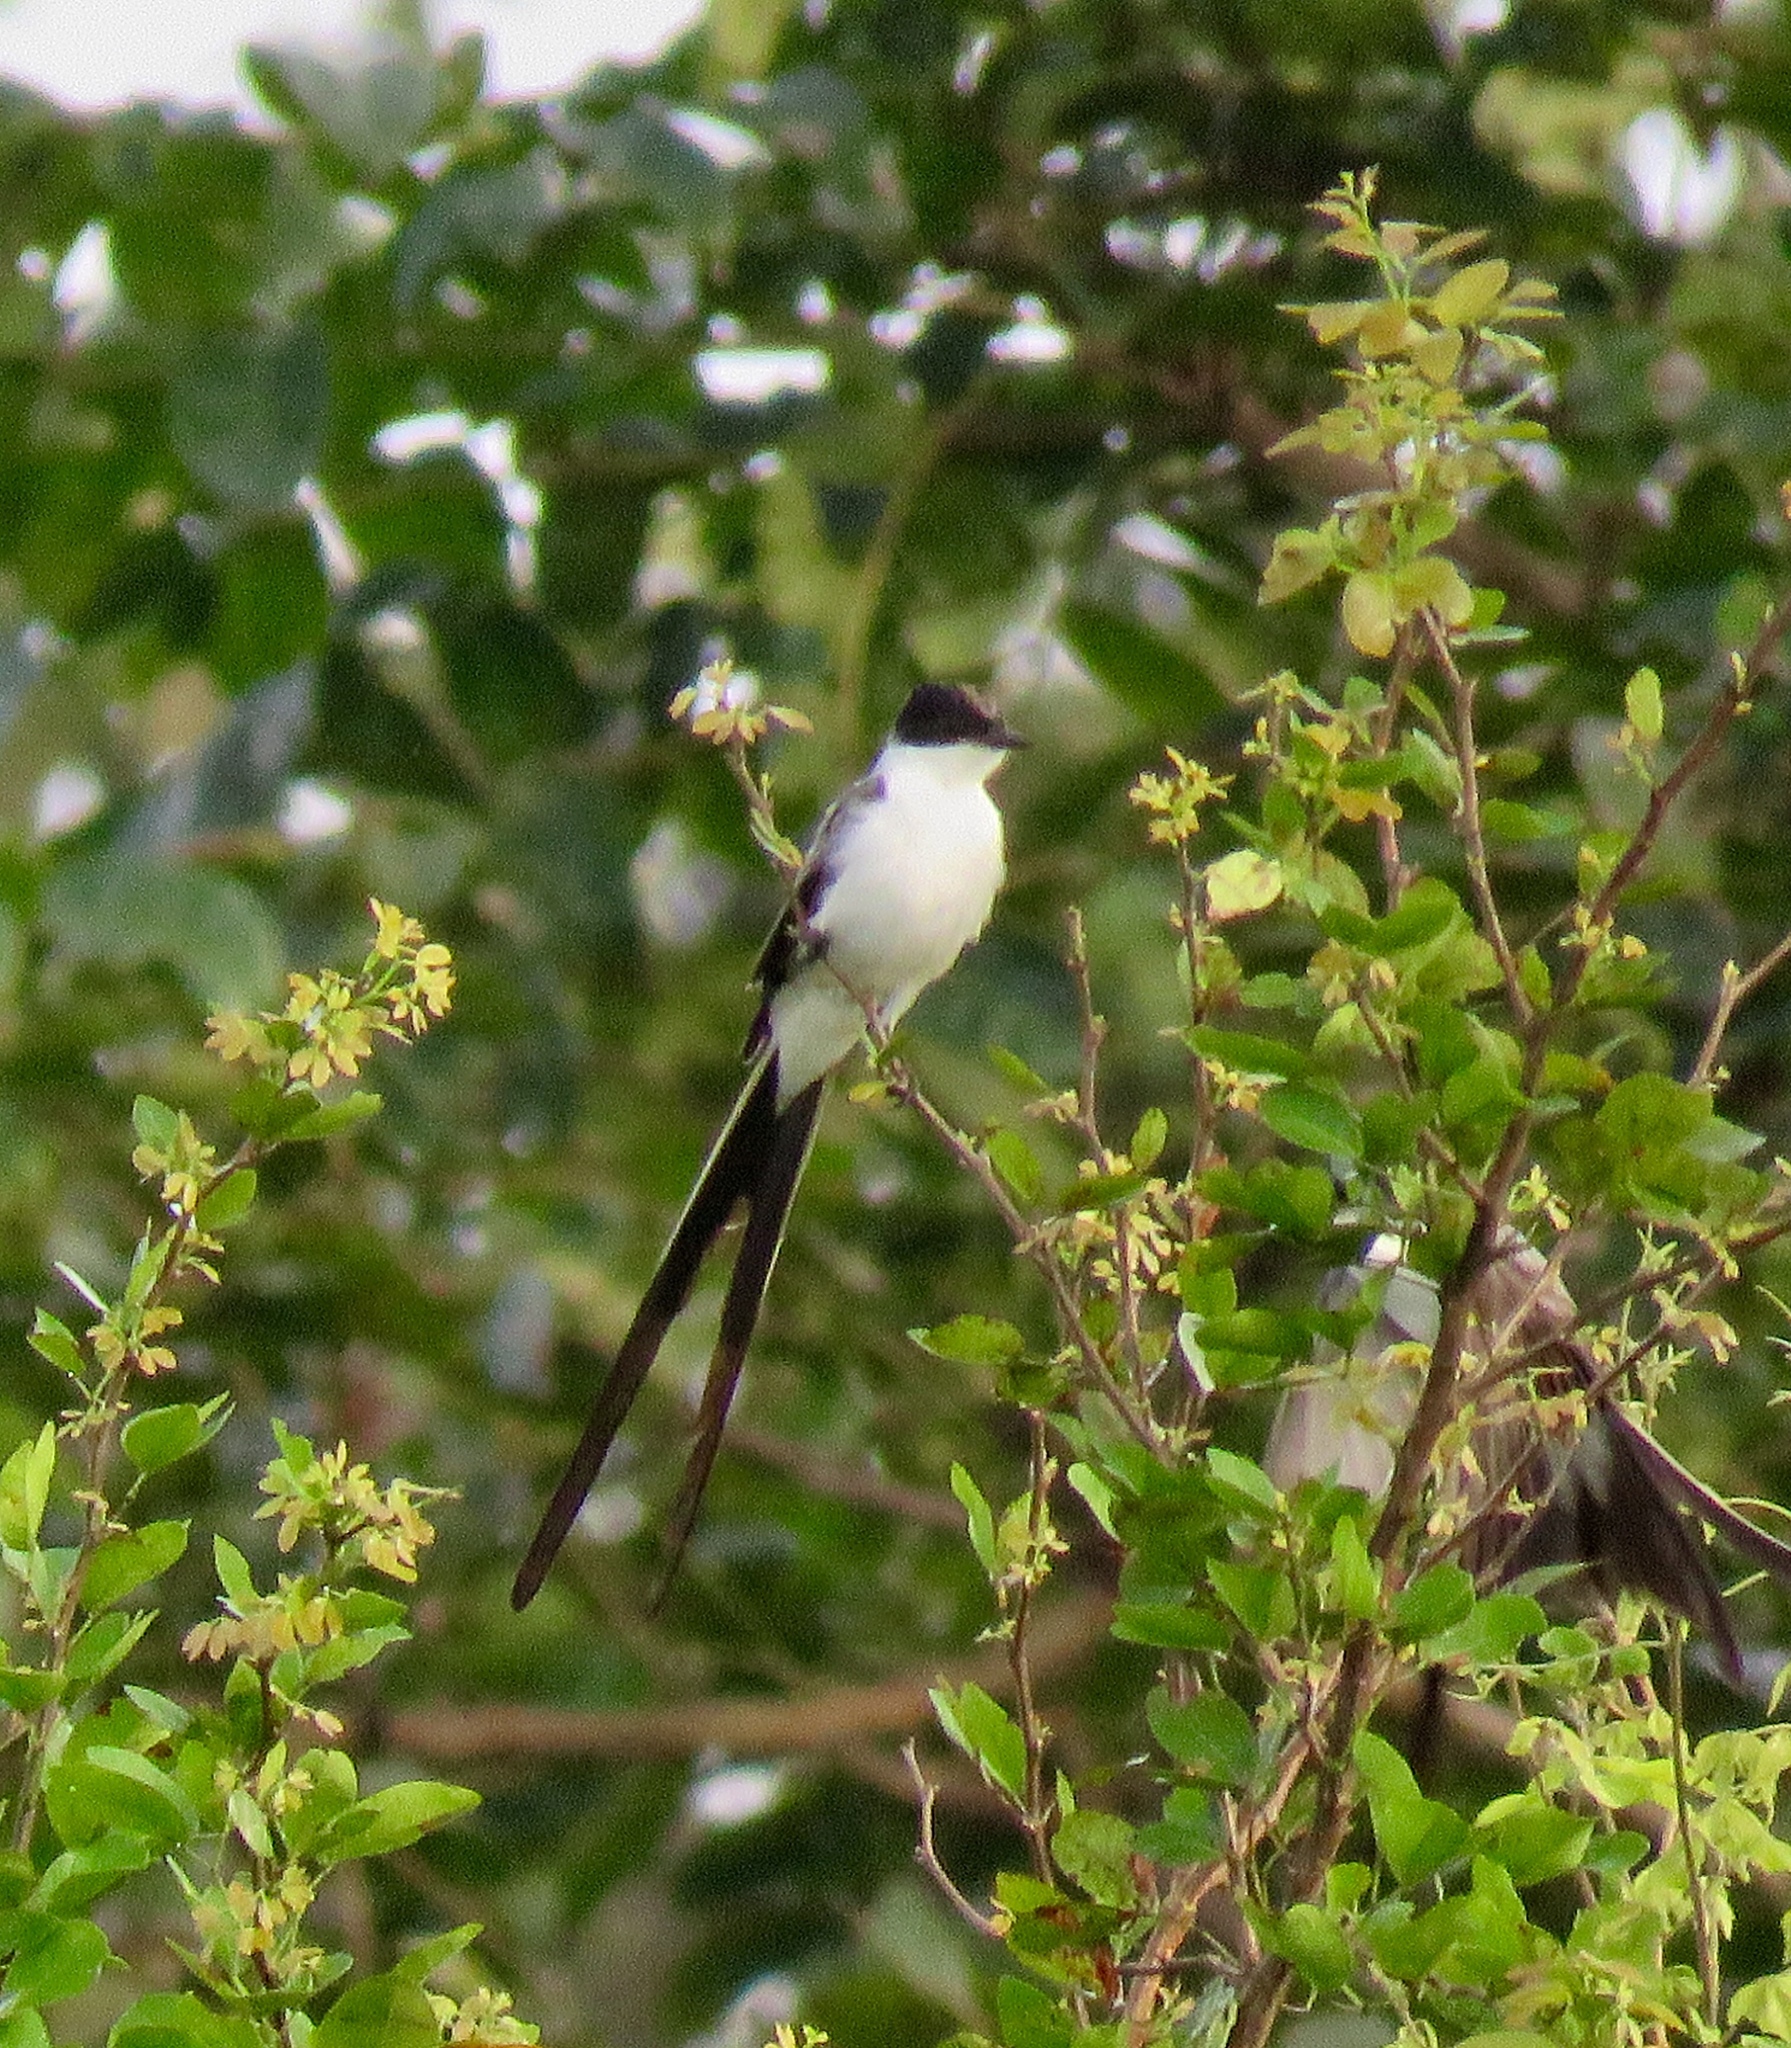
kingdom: Animalia
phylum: Chordata
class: Aves
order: Passeriformes
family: Tyrannidae
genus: Tyrannus
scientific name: Tyrannus savana
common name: Fork-tailed flycatcher
